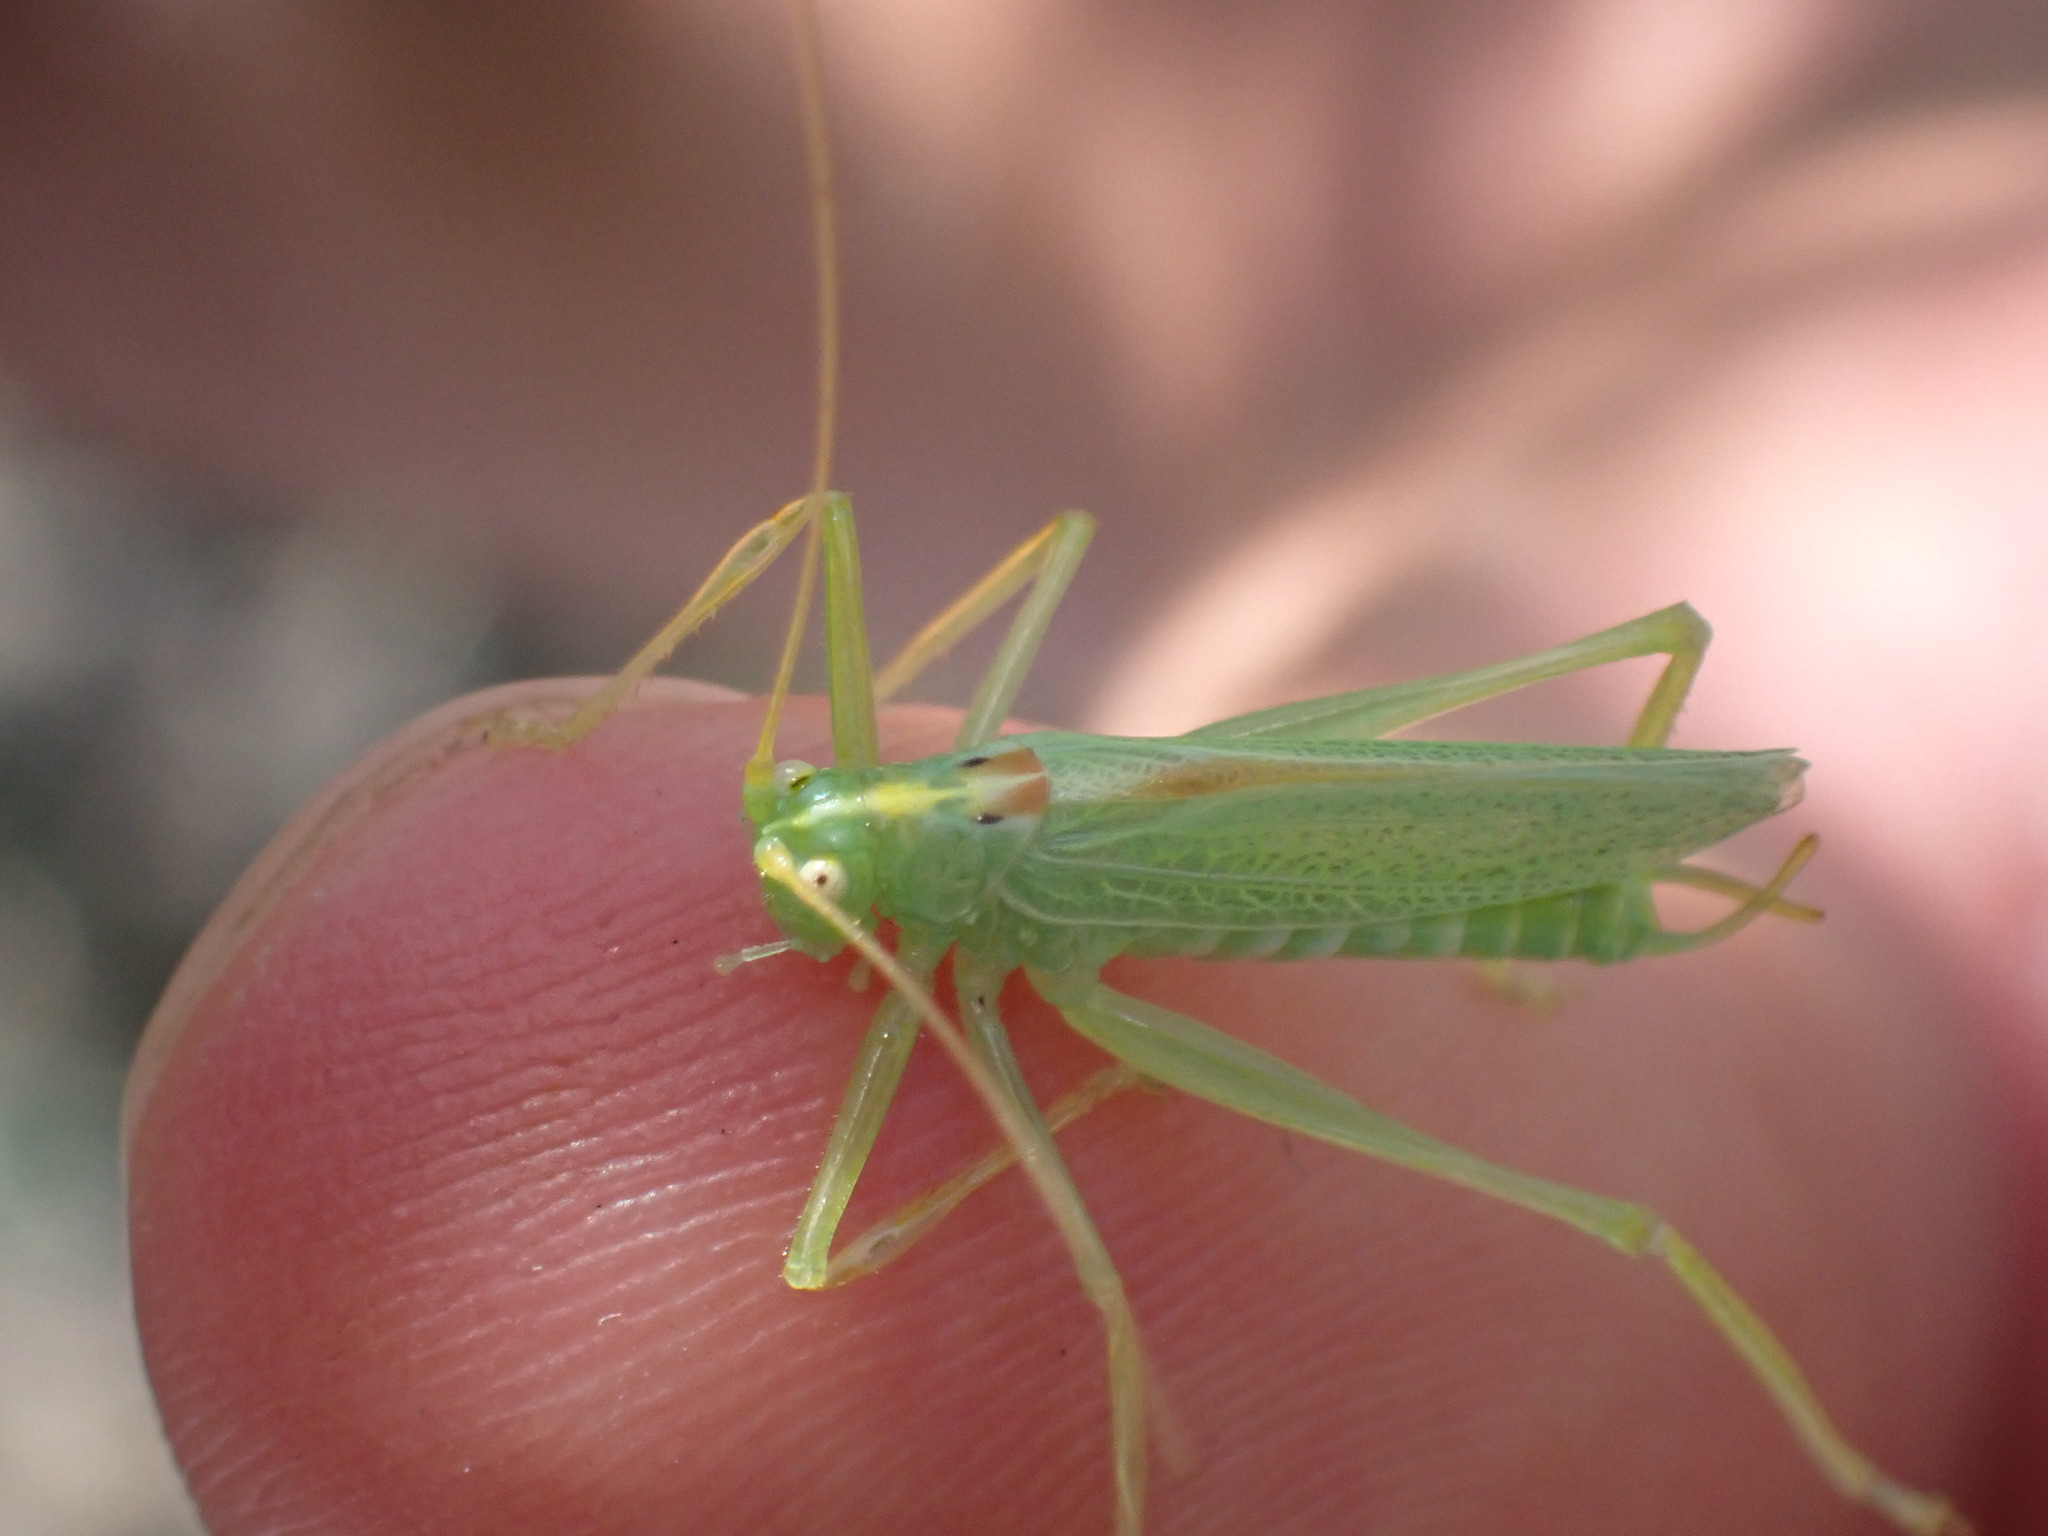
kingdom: Animalia
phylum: Arthropoda
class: Insecta
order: Orthoptera
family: Tettigoniidae
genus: Meconema
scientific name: Meconema thalassinum
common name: Oak bush-cricket
